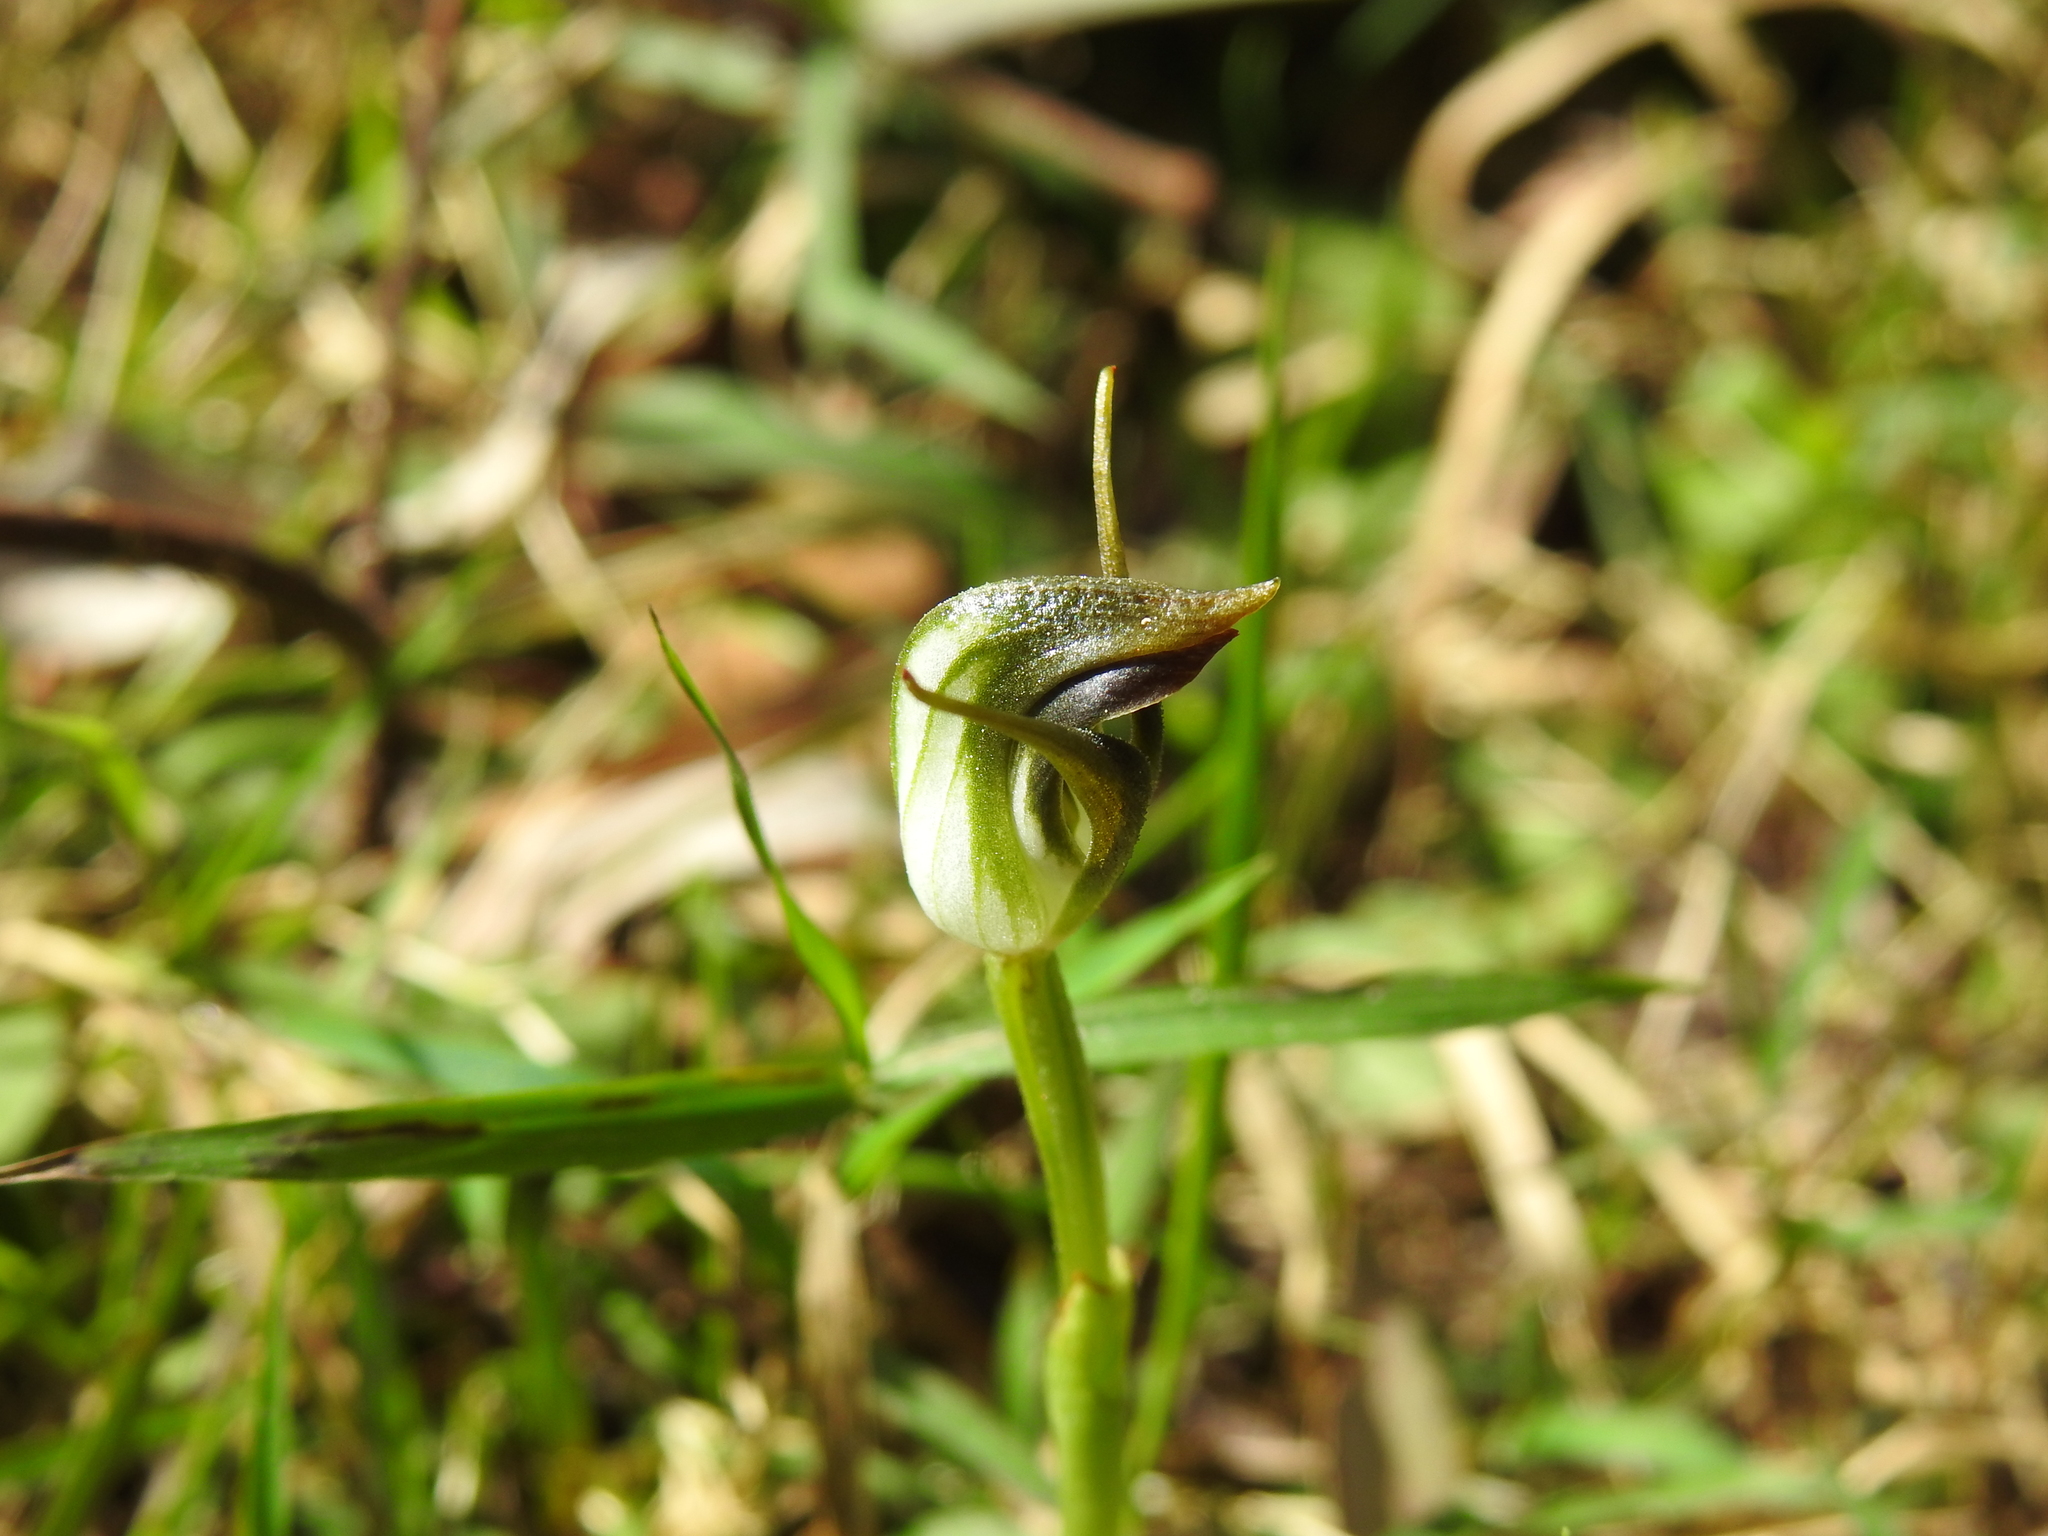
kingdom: Plantae
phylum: Tracheophyta
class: Liliopsida
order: Asparagales
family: Orchidaceae
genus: Pterostylis
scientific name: Pterostylis pedunculata
